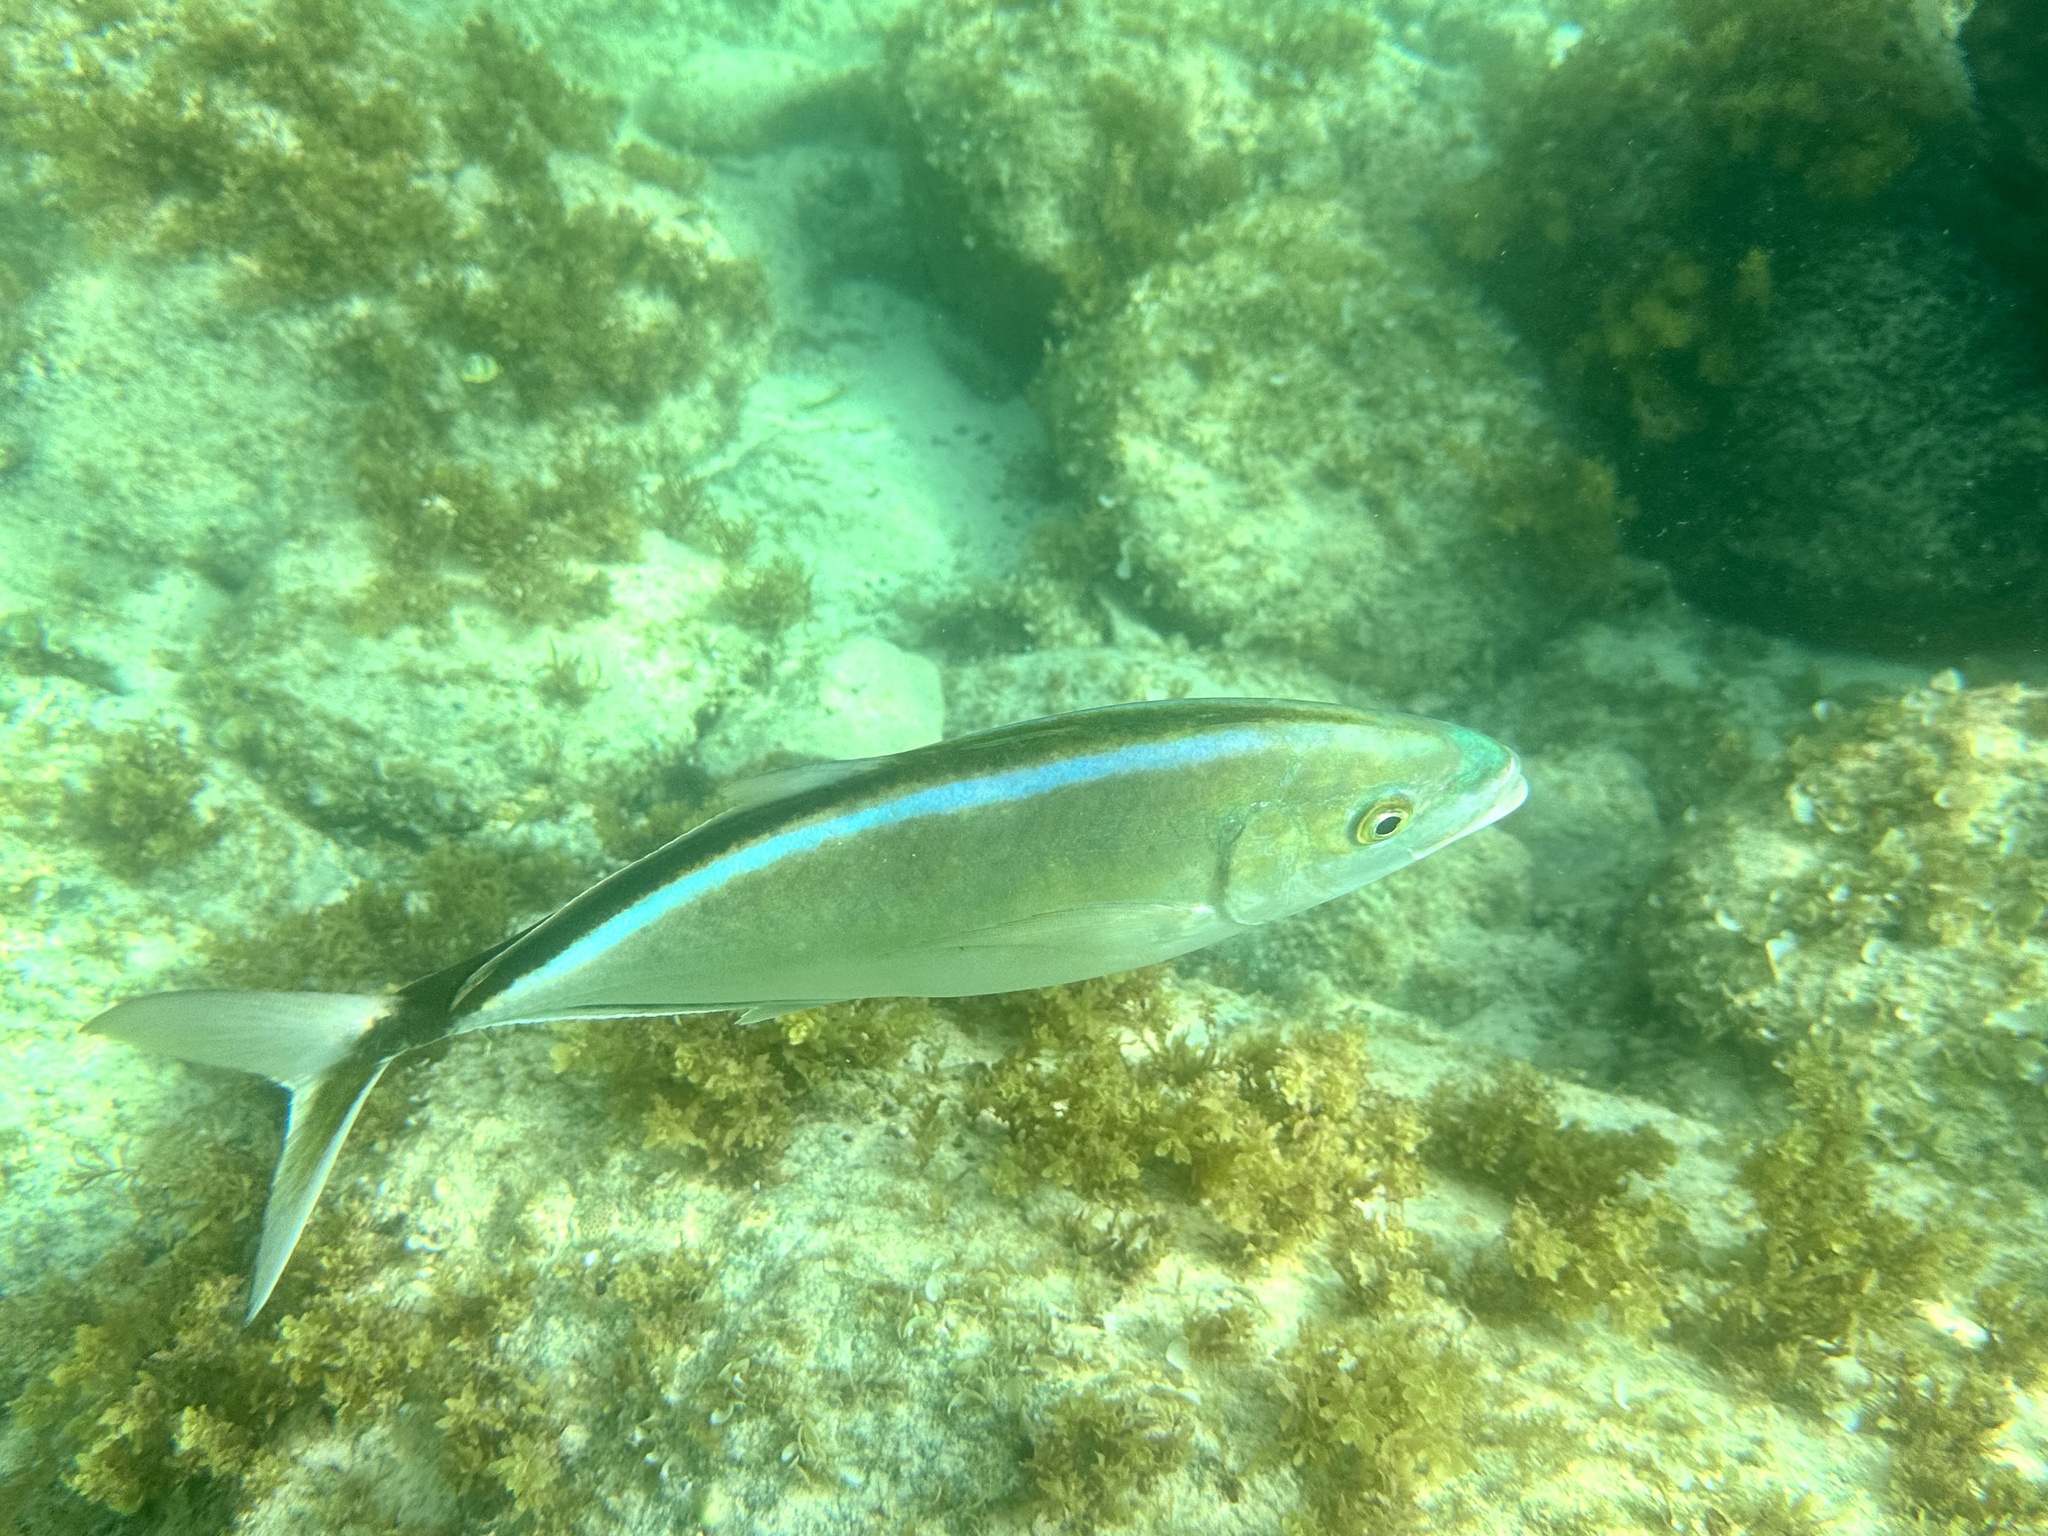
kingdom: Animalia
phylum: Chordata
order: Perciformes
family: Carangidae
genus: Caranx
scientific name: Caranx ruber
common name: Bar jack
